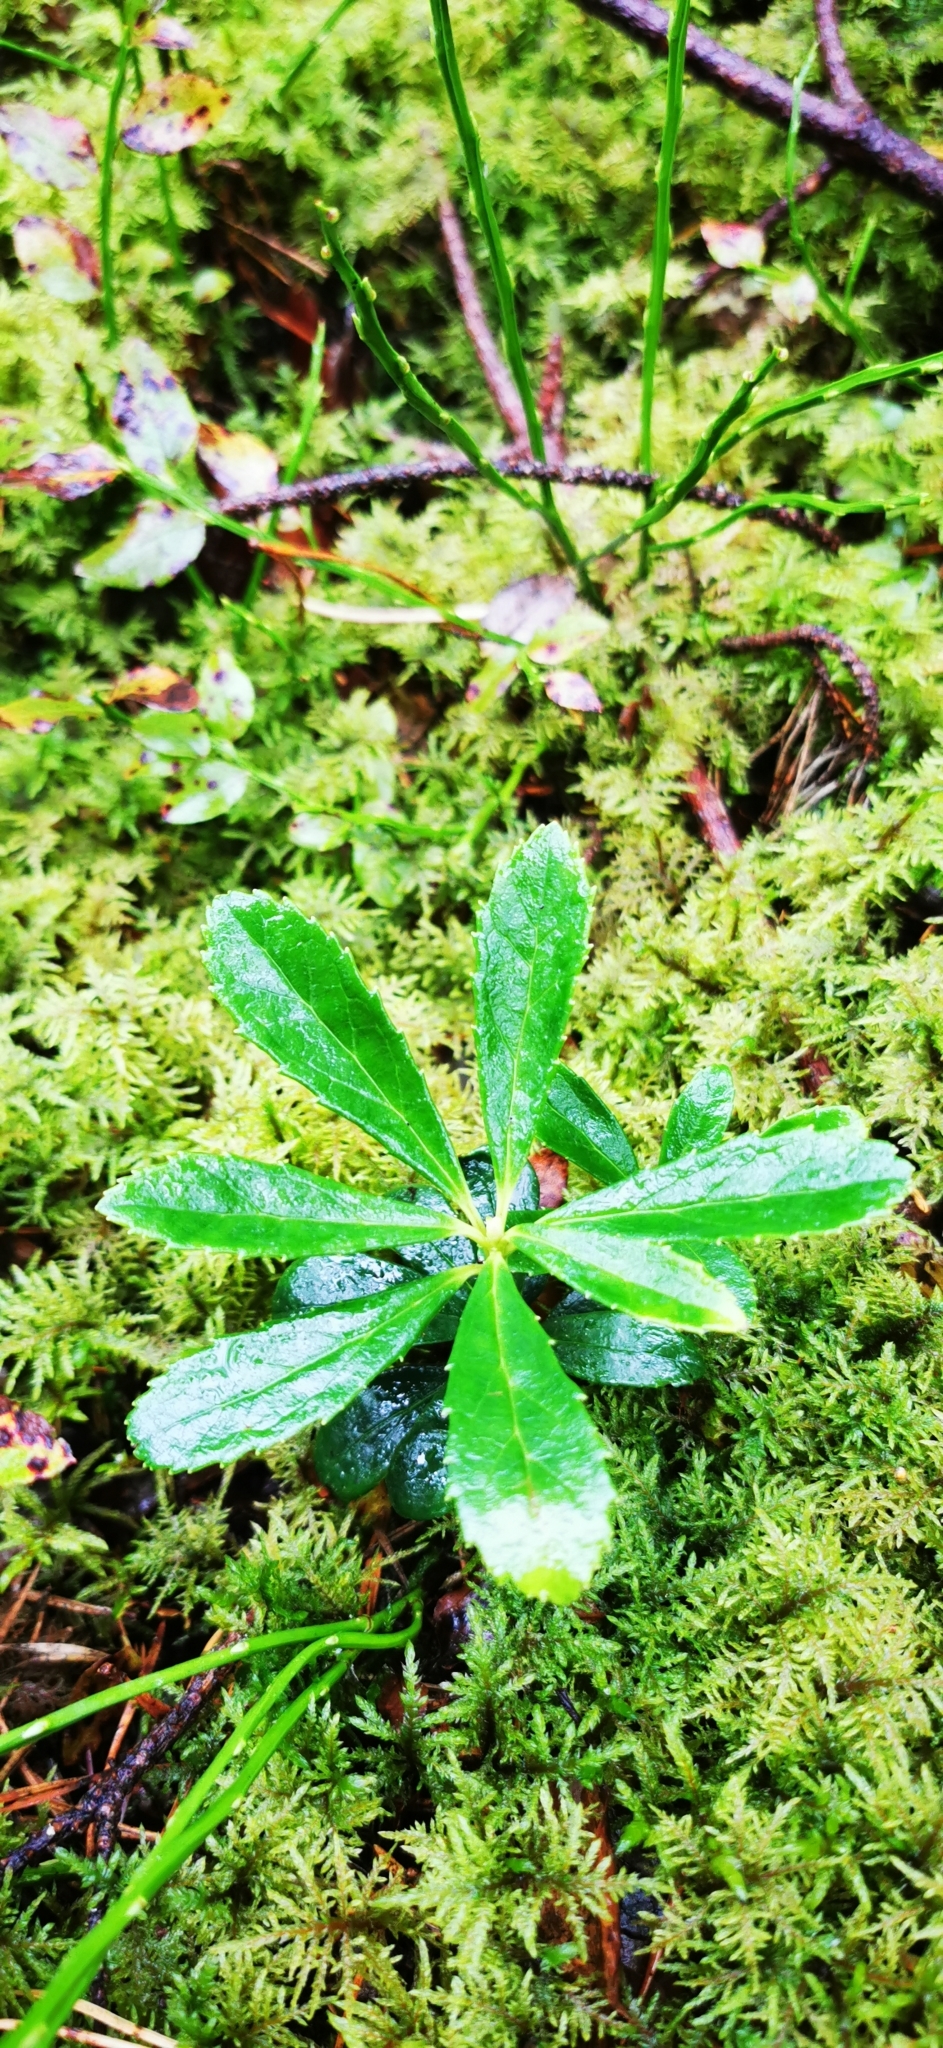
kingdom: Plantae
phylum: Tracheophyta
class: Magnoliopsida
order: Ericales
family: Ericaceae
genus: Chimaphila
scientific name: Chimaphila umbellata
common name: Pipsissewa
